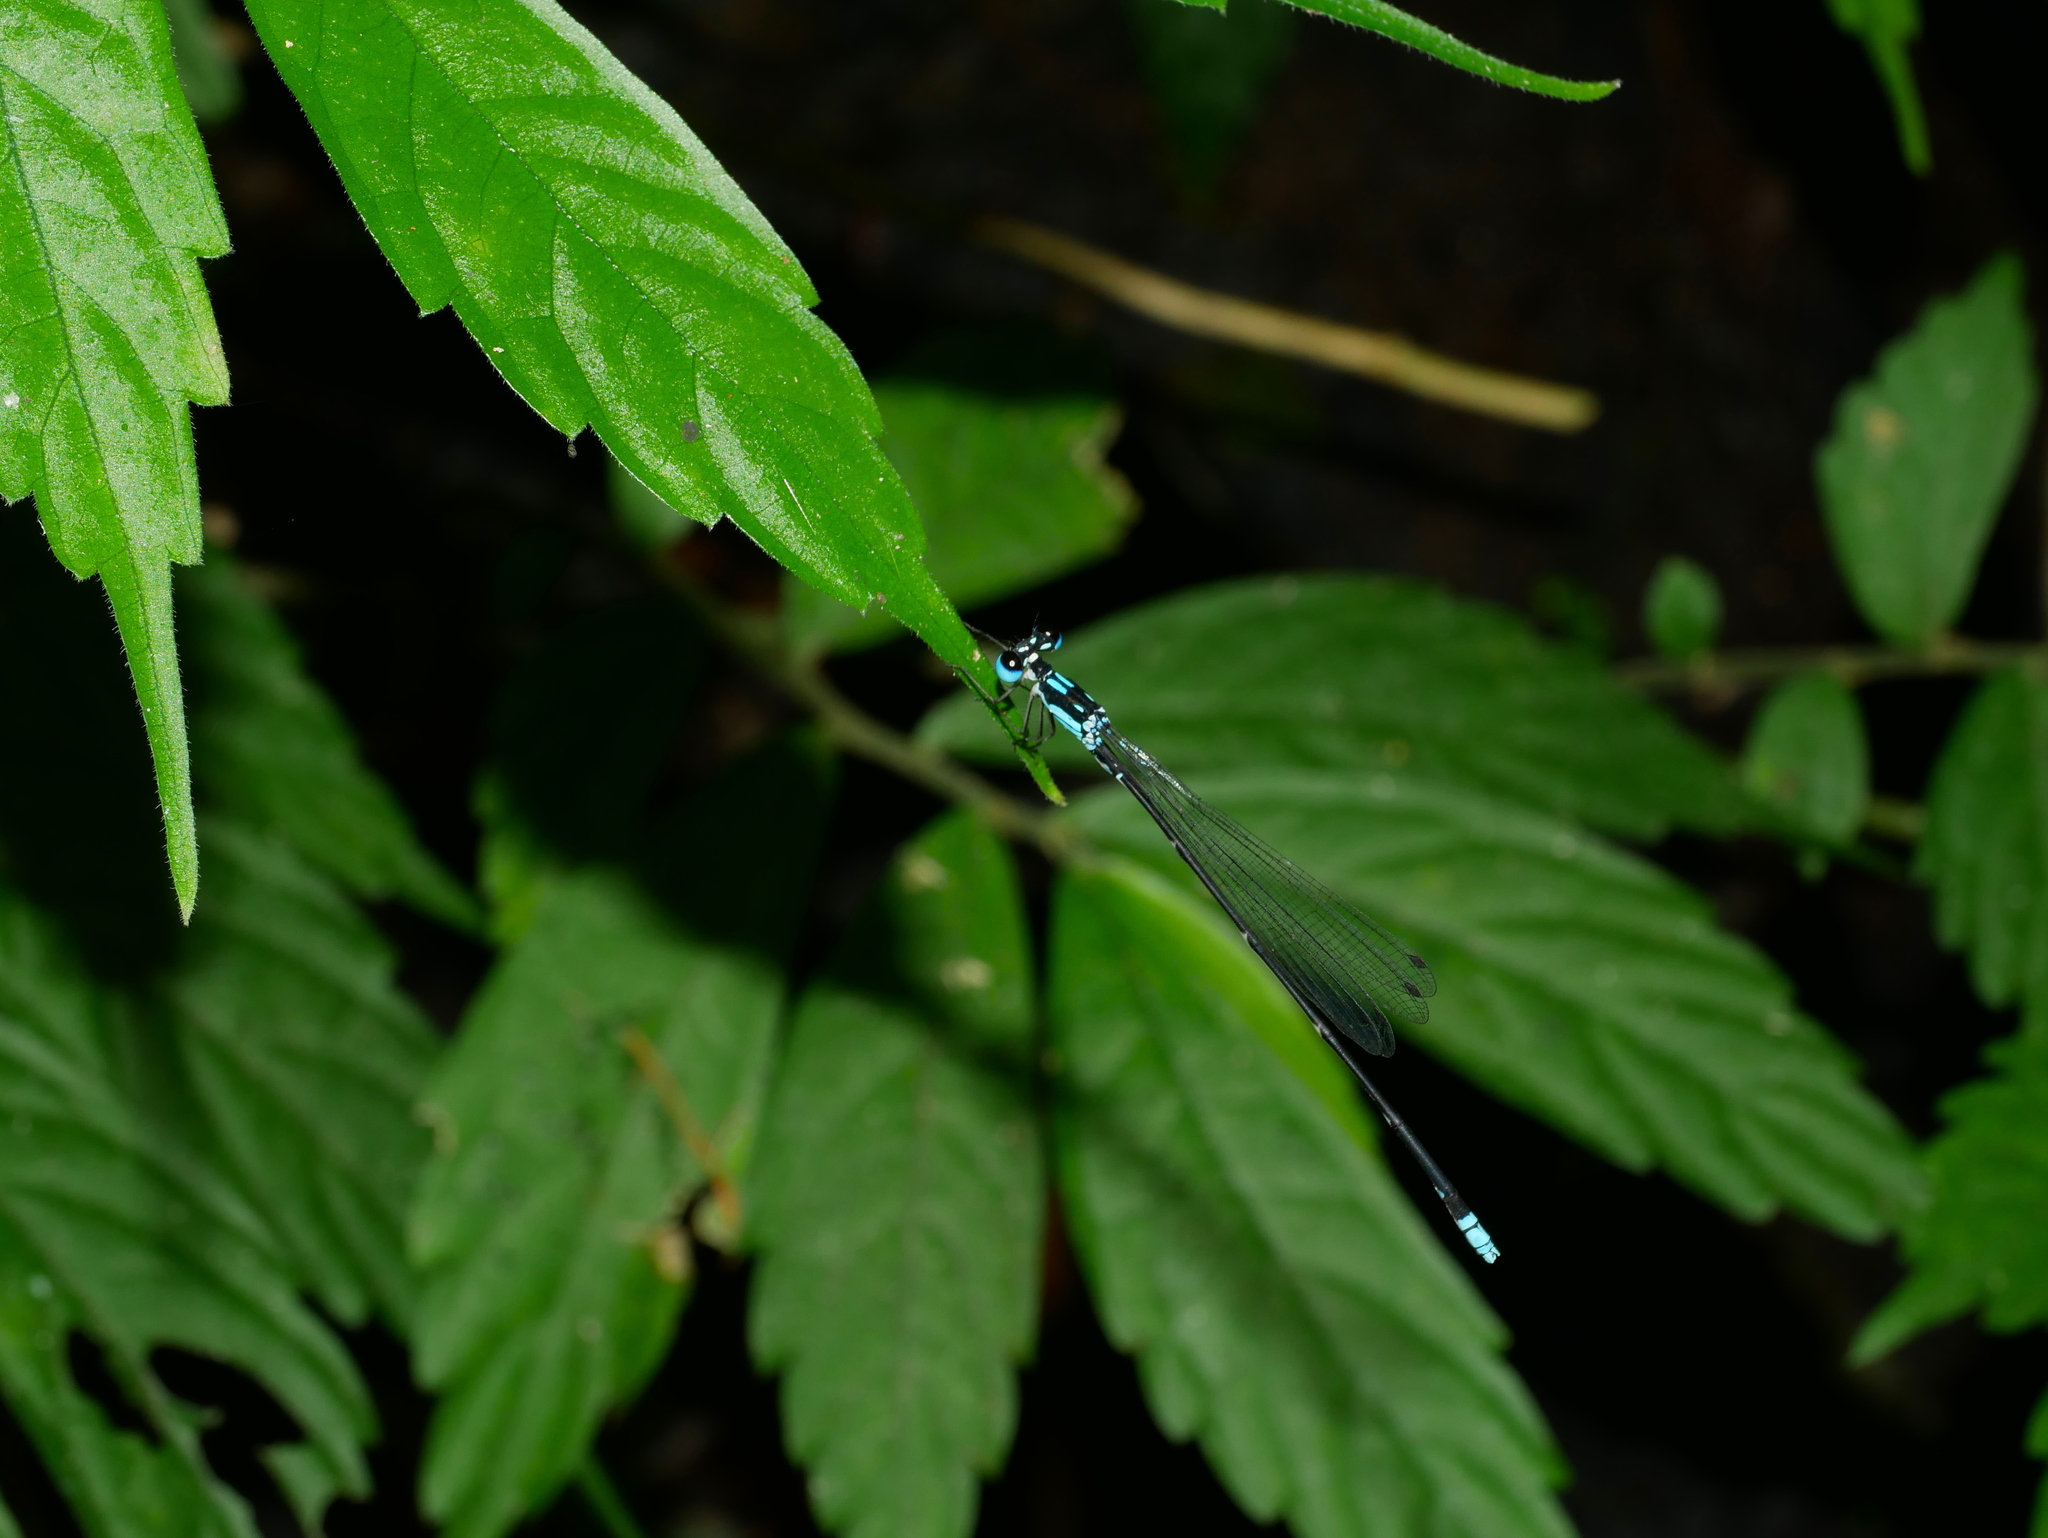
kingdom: Animalia
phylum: Arthropoda
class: Insecta
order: Odonata
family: Platycnemididae
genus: Coeliccia
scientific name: Coeliccia cyanomelas
